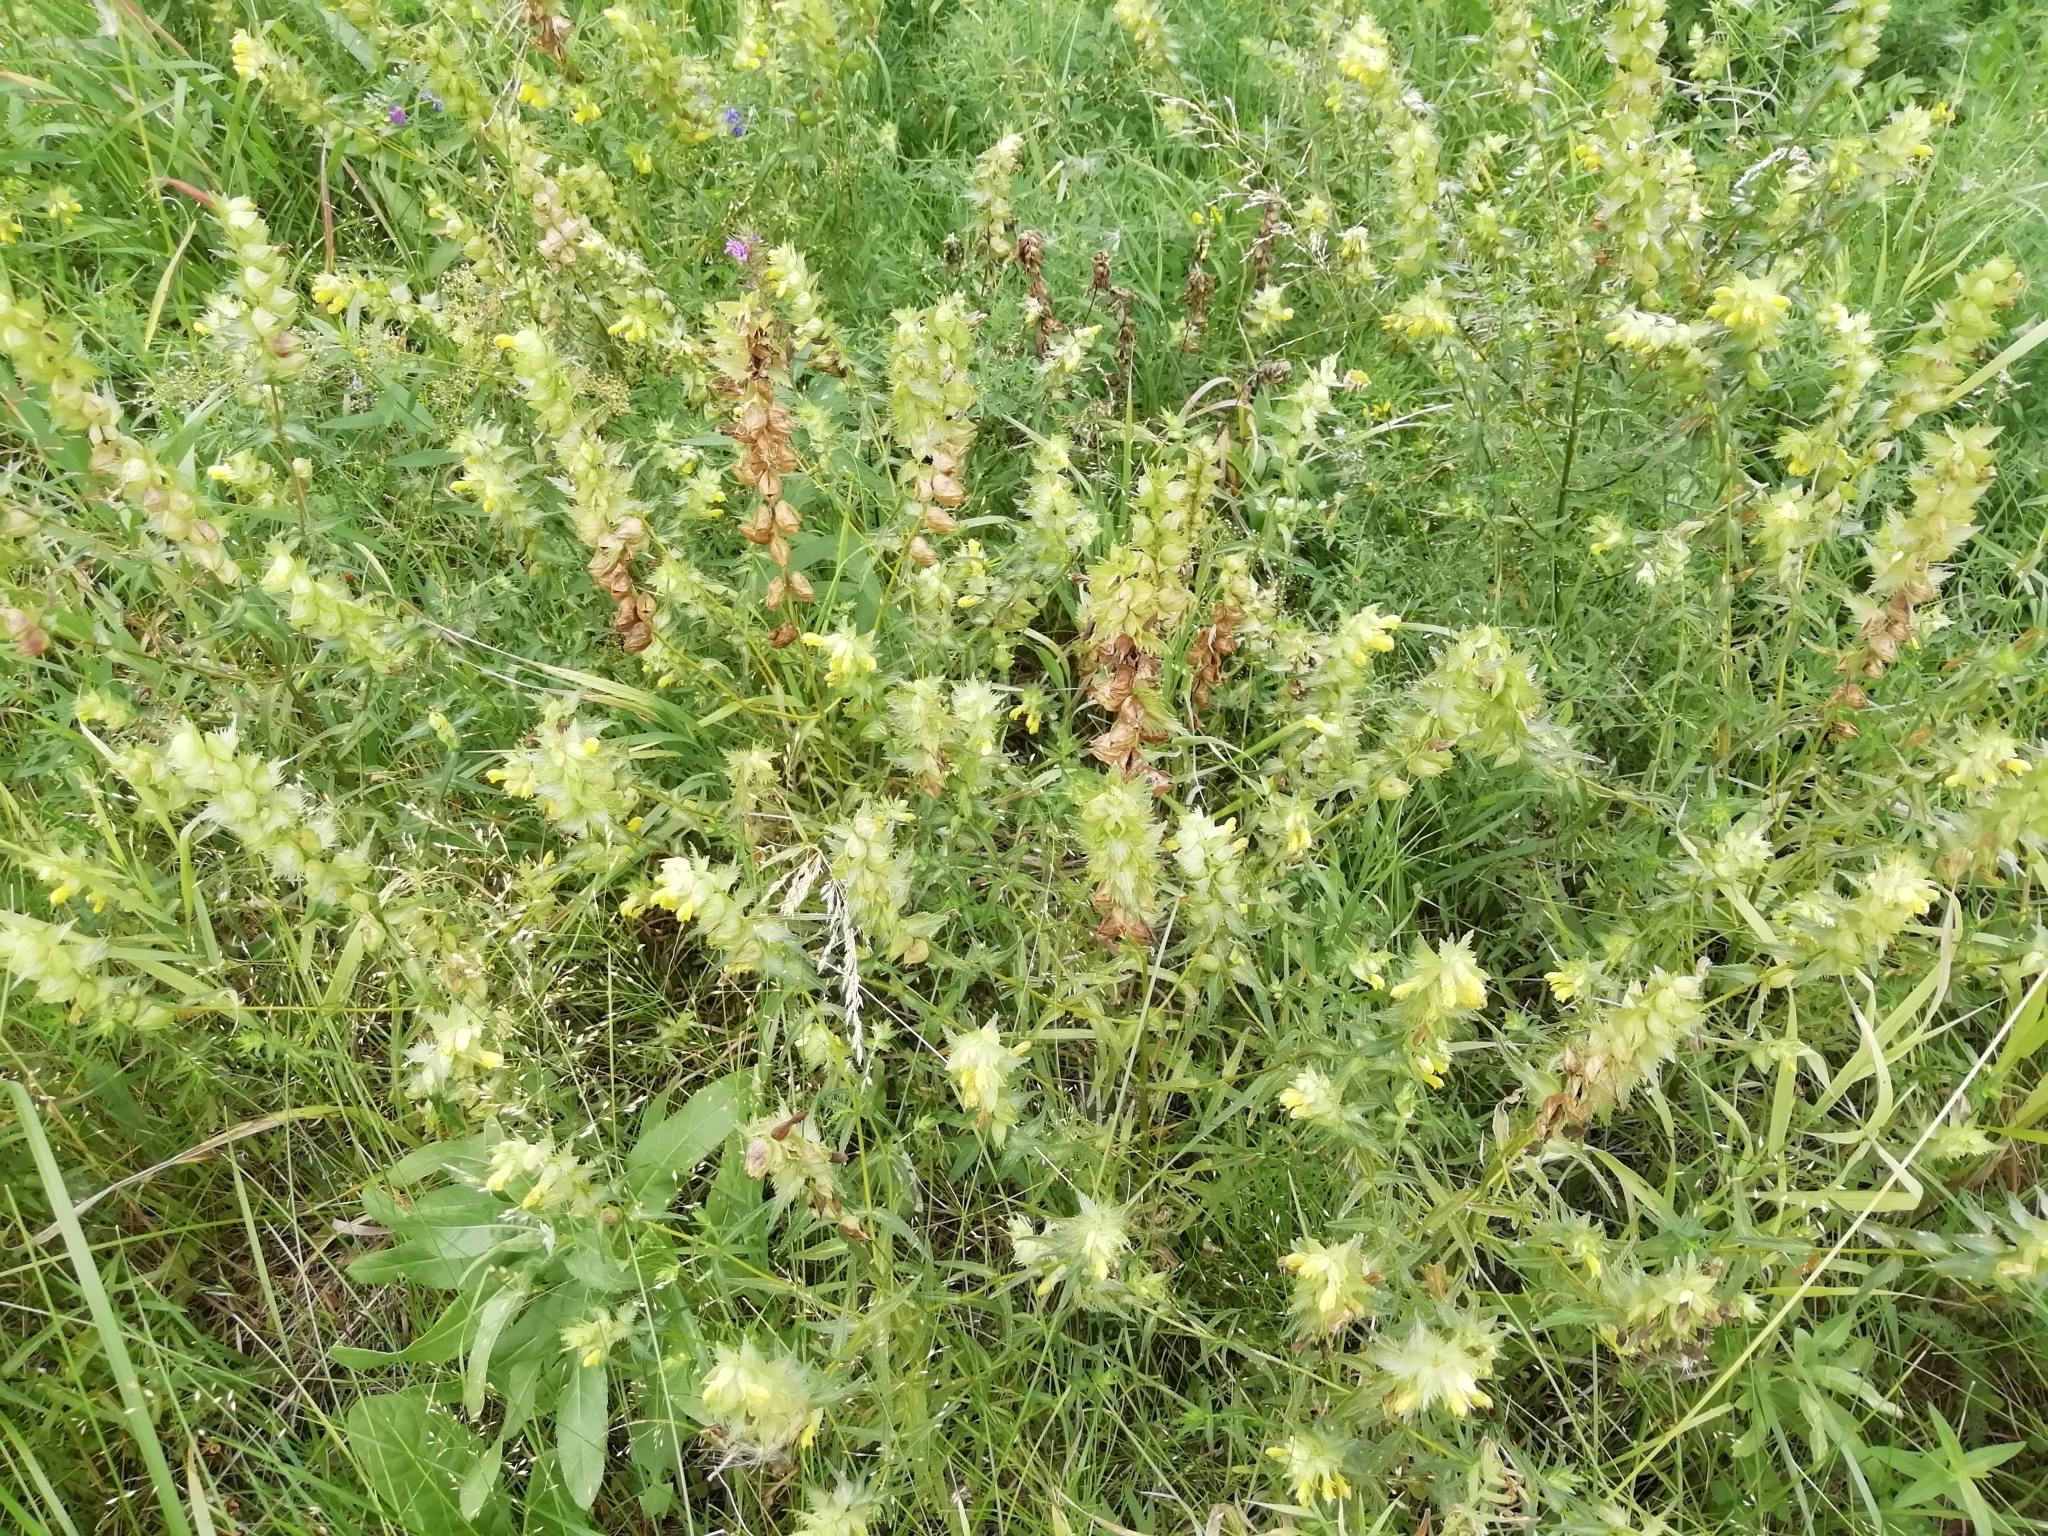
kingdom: Plantae
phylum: Tracheophyta
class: Magnoliopsida
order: Lamiales
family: Orobanchaceae
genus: Rhinanthus
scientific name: Rhinanthus serotinus
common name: Late-flowering yellow rattle
